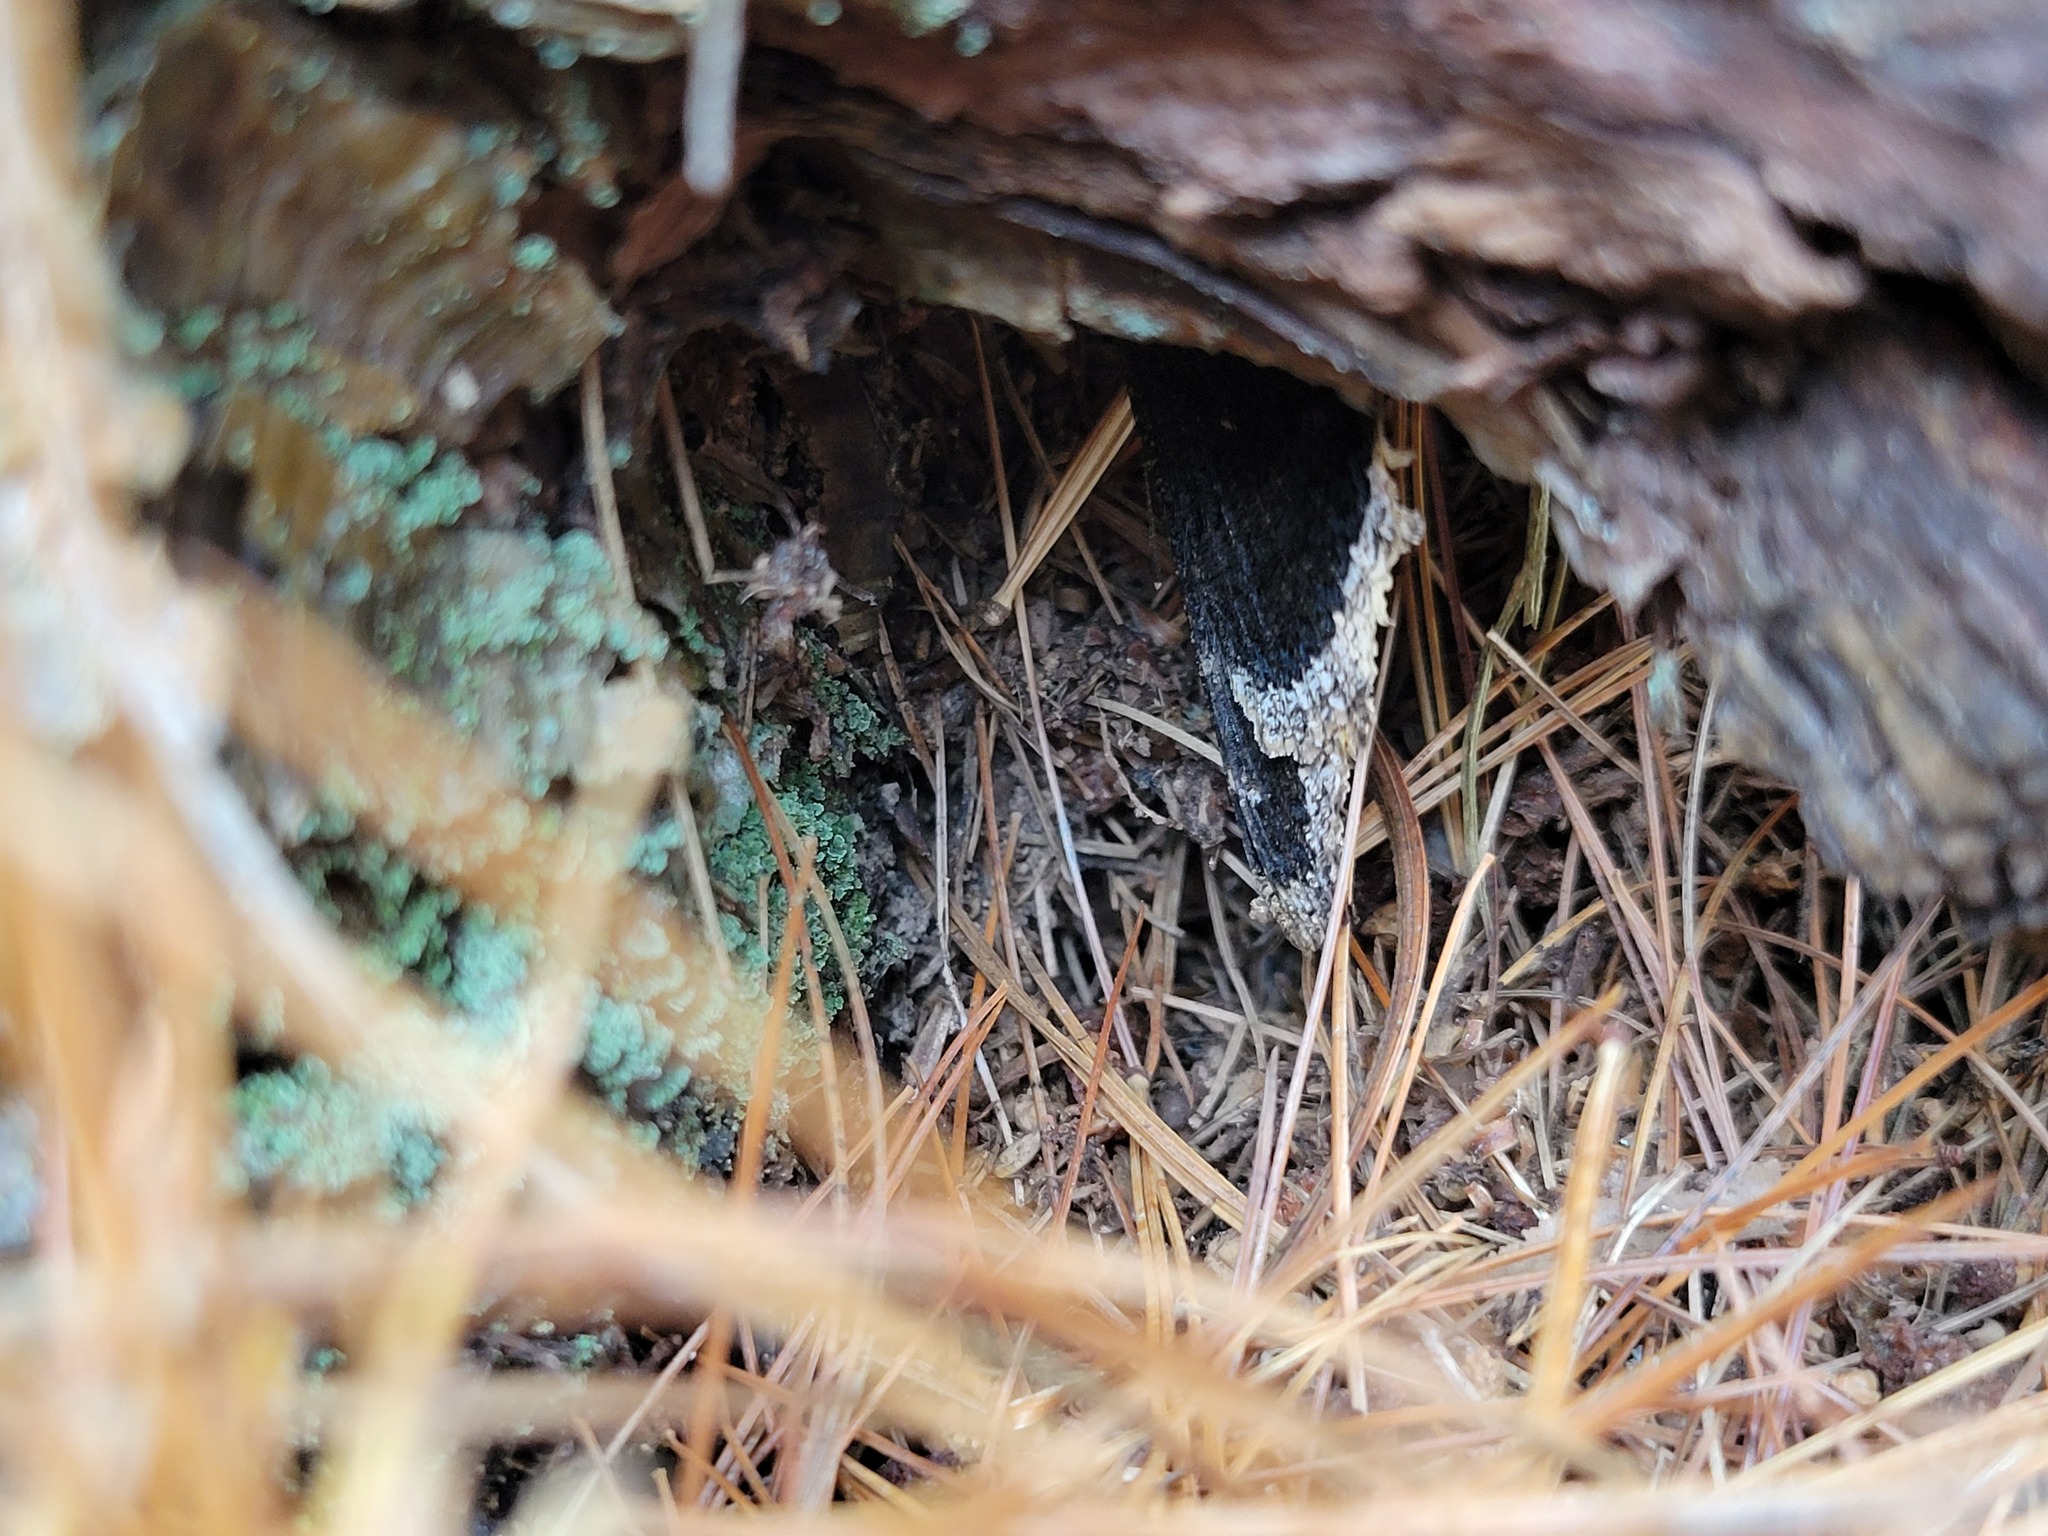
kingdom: Animalia
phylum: Arthropoda
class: Insecta
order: Lepidoptera
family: Nymphalidae
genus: Nymphalis
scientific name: Nymphalis antiopa
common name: Camberwell beauty
